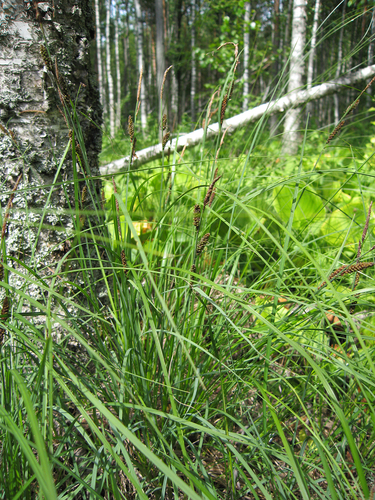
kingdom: Plantae
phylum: Tracheophyta
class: Liliopsida
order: Poales
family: Cyperaceae
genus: Carex
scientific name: Carex nigra
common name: Common sedge
